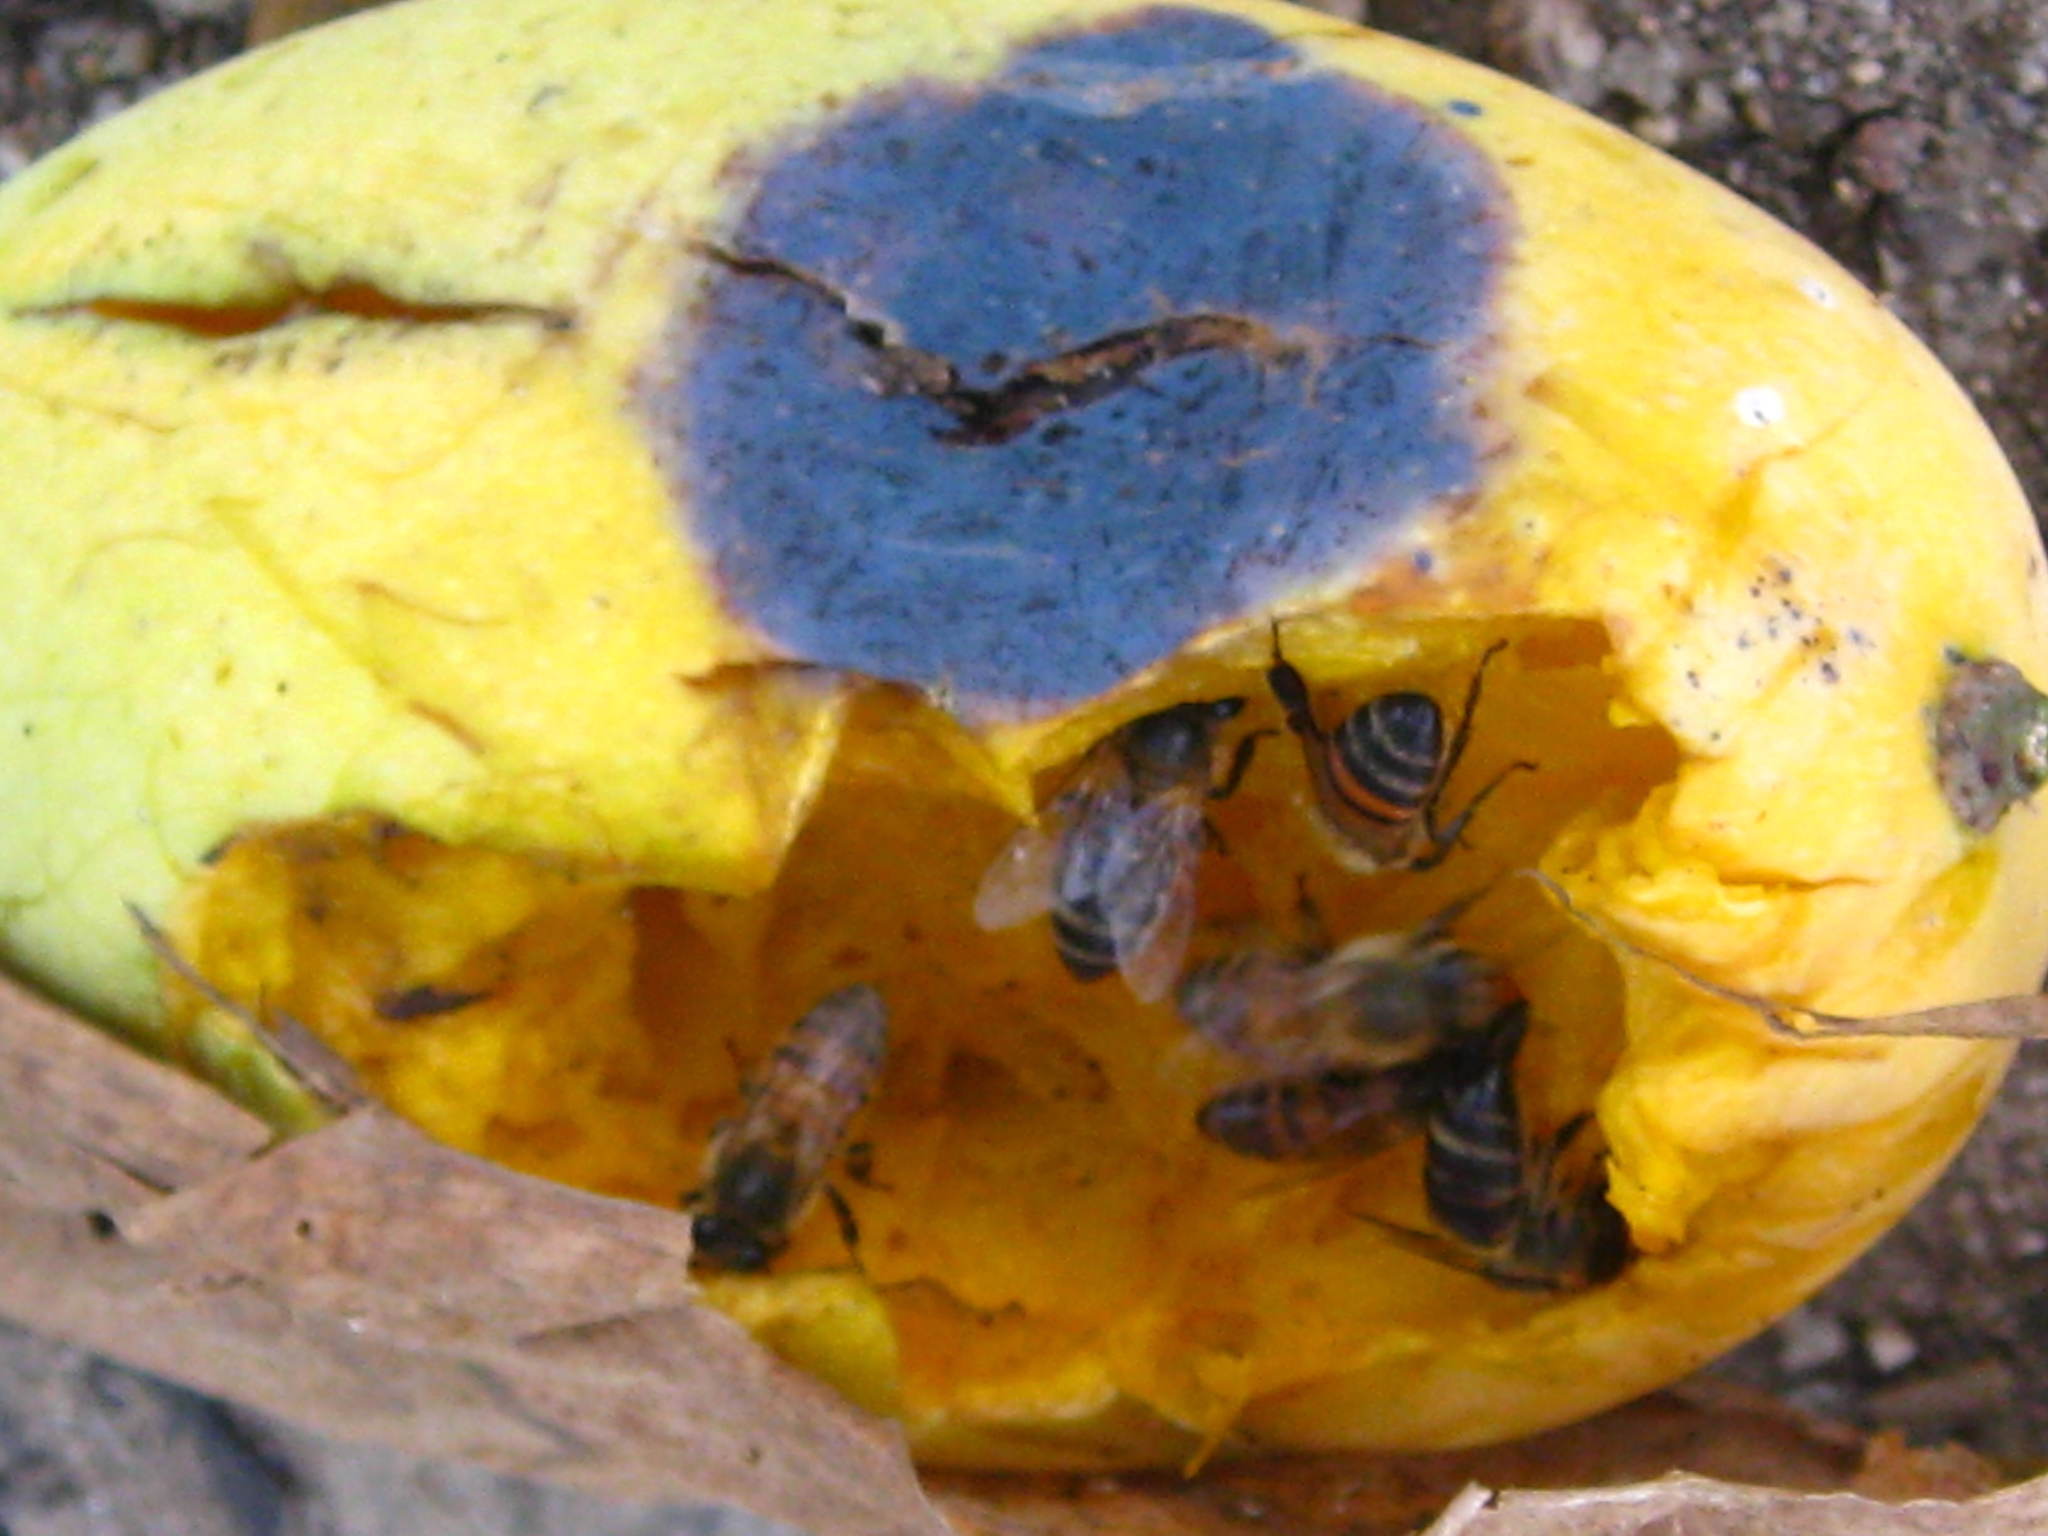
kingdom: Animalia
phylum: Arthropoda
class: Insecta
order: Hymenoptera
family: Apidae
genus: Apis
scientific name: Apis mellifera
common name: Honey bee
